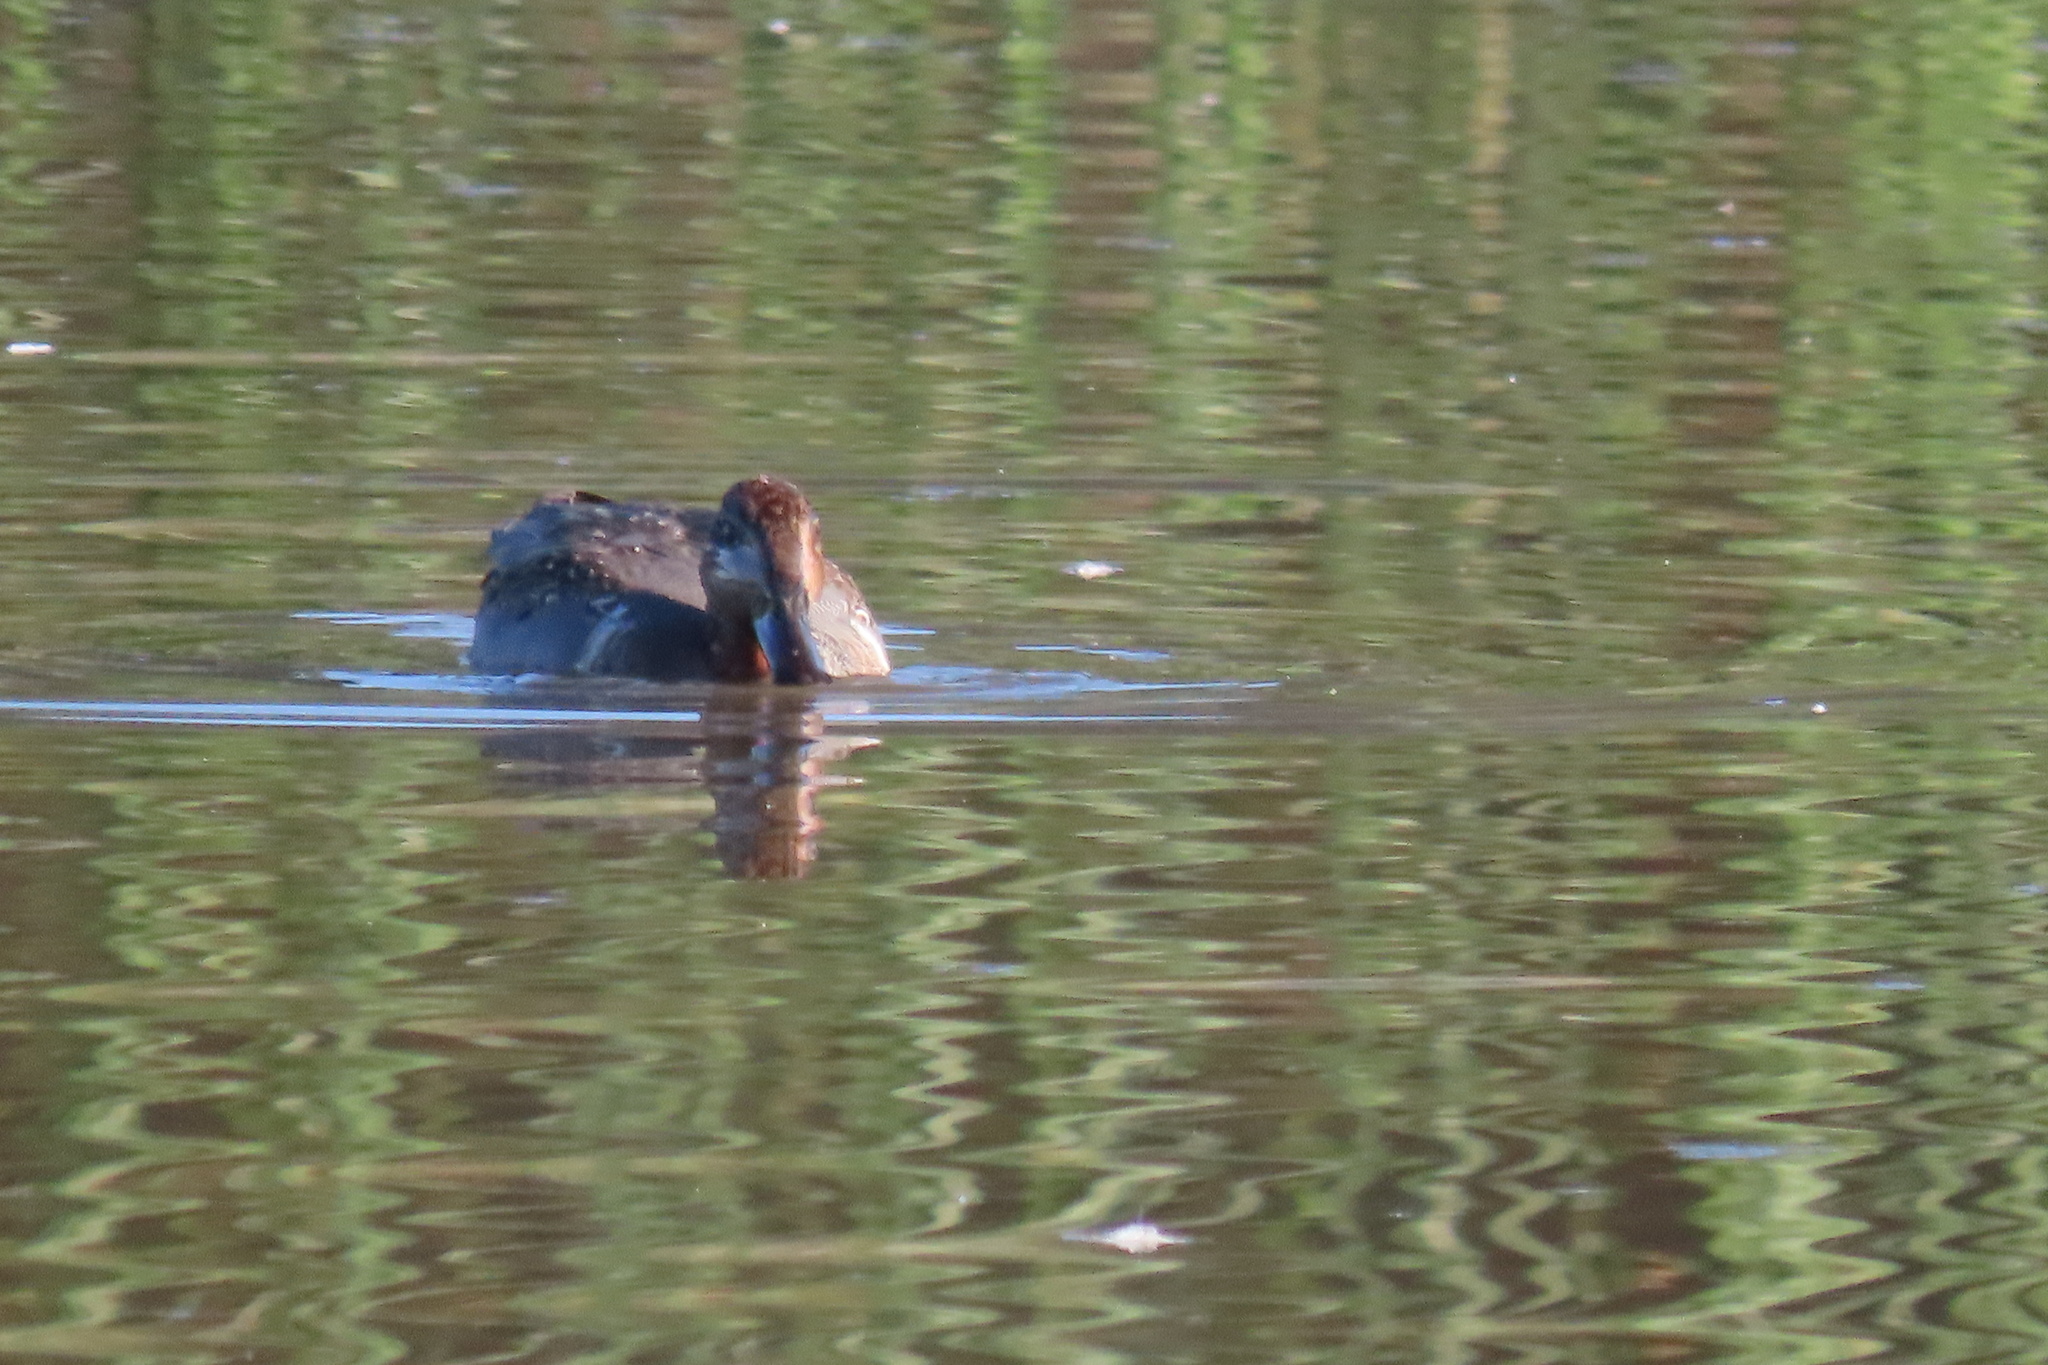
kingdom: Animalia
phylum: Chordata
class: Aves
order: Anseriformes
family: Anatidae
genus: Anas
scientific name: Anas crecca
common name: Eurasian teal
